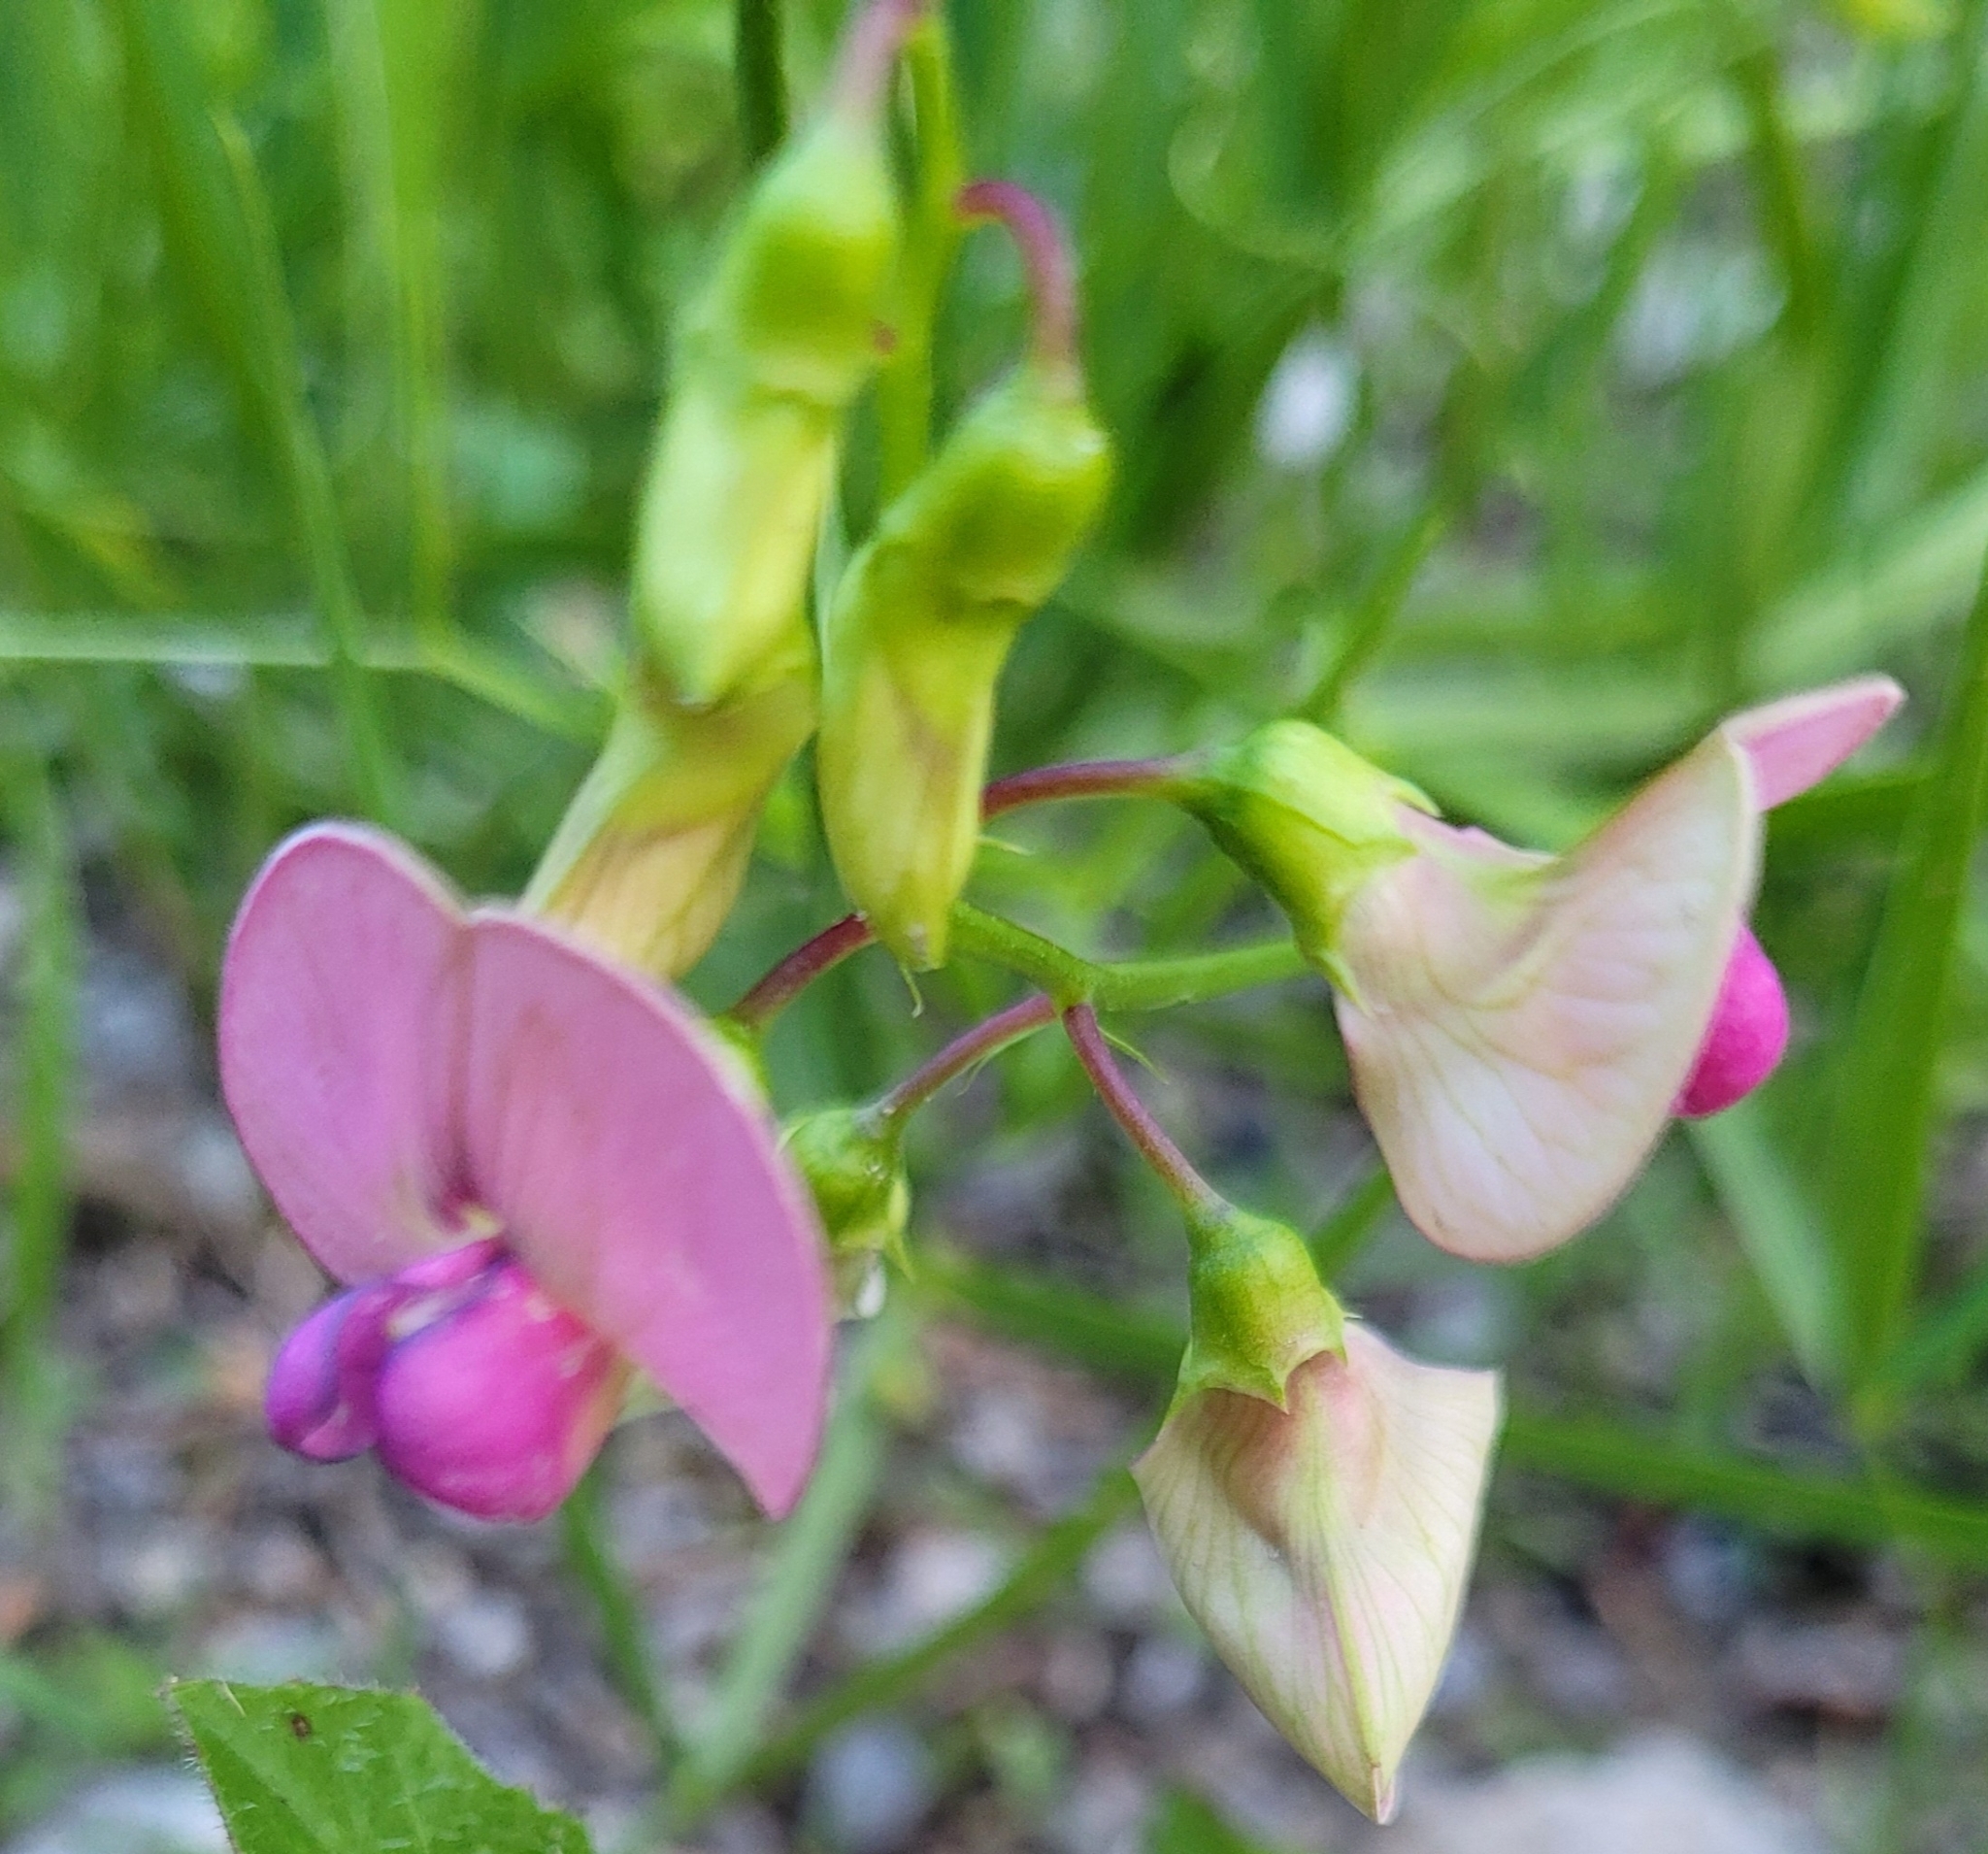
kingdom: Plantae
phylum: Tracheophyta
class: Magnoliopsida
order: Fabales
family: Fabaceae
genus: Lathyrus
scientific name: Lathyrus sylvestris
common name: Flat pea
